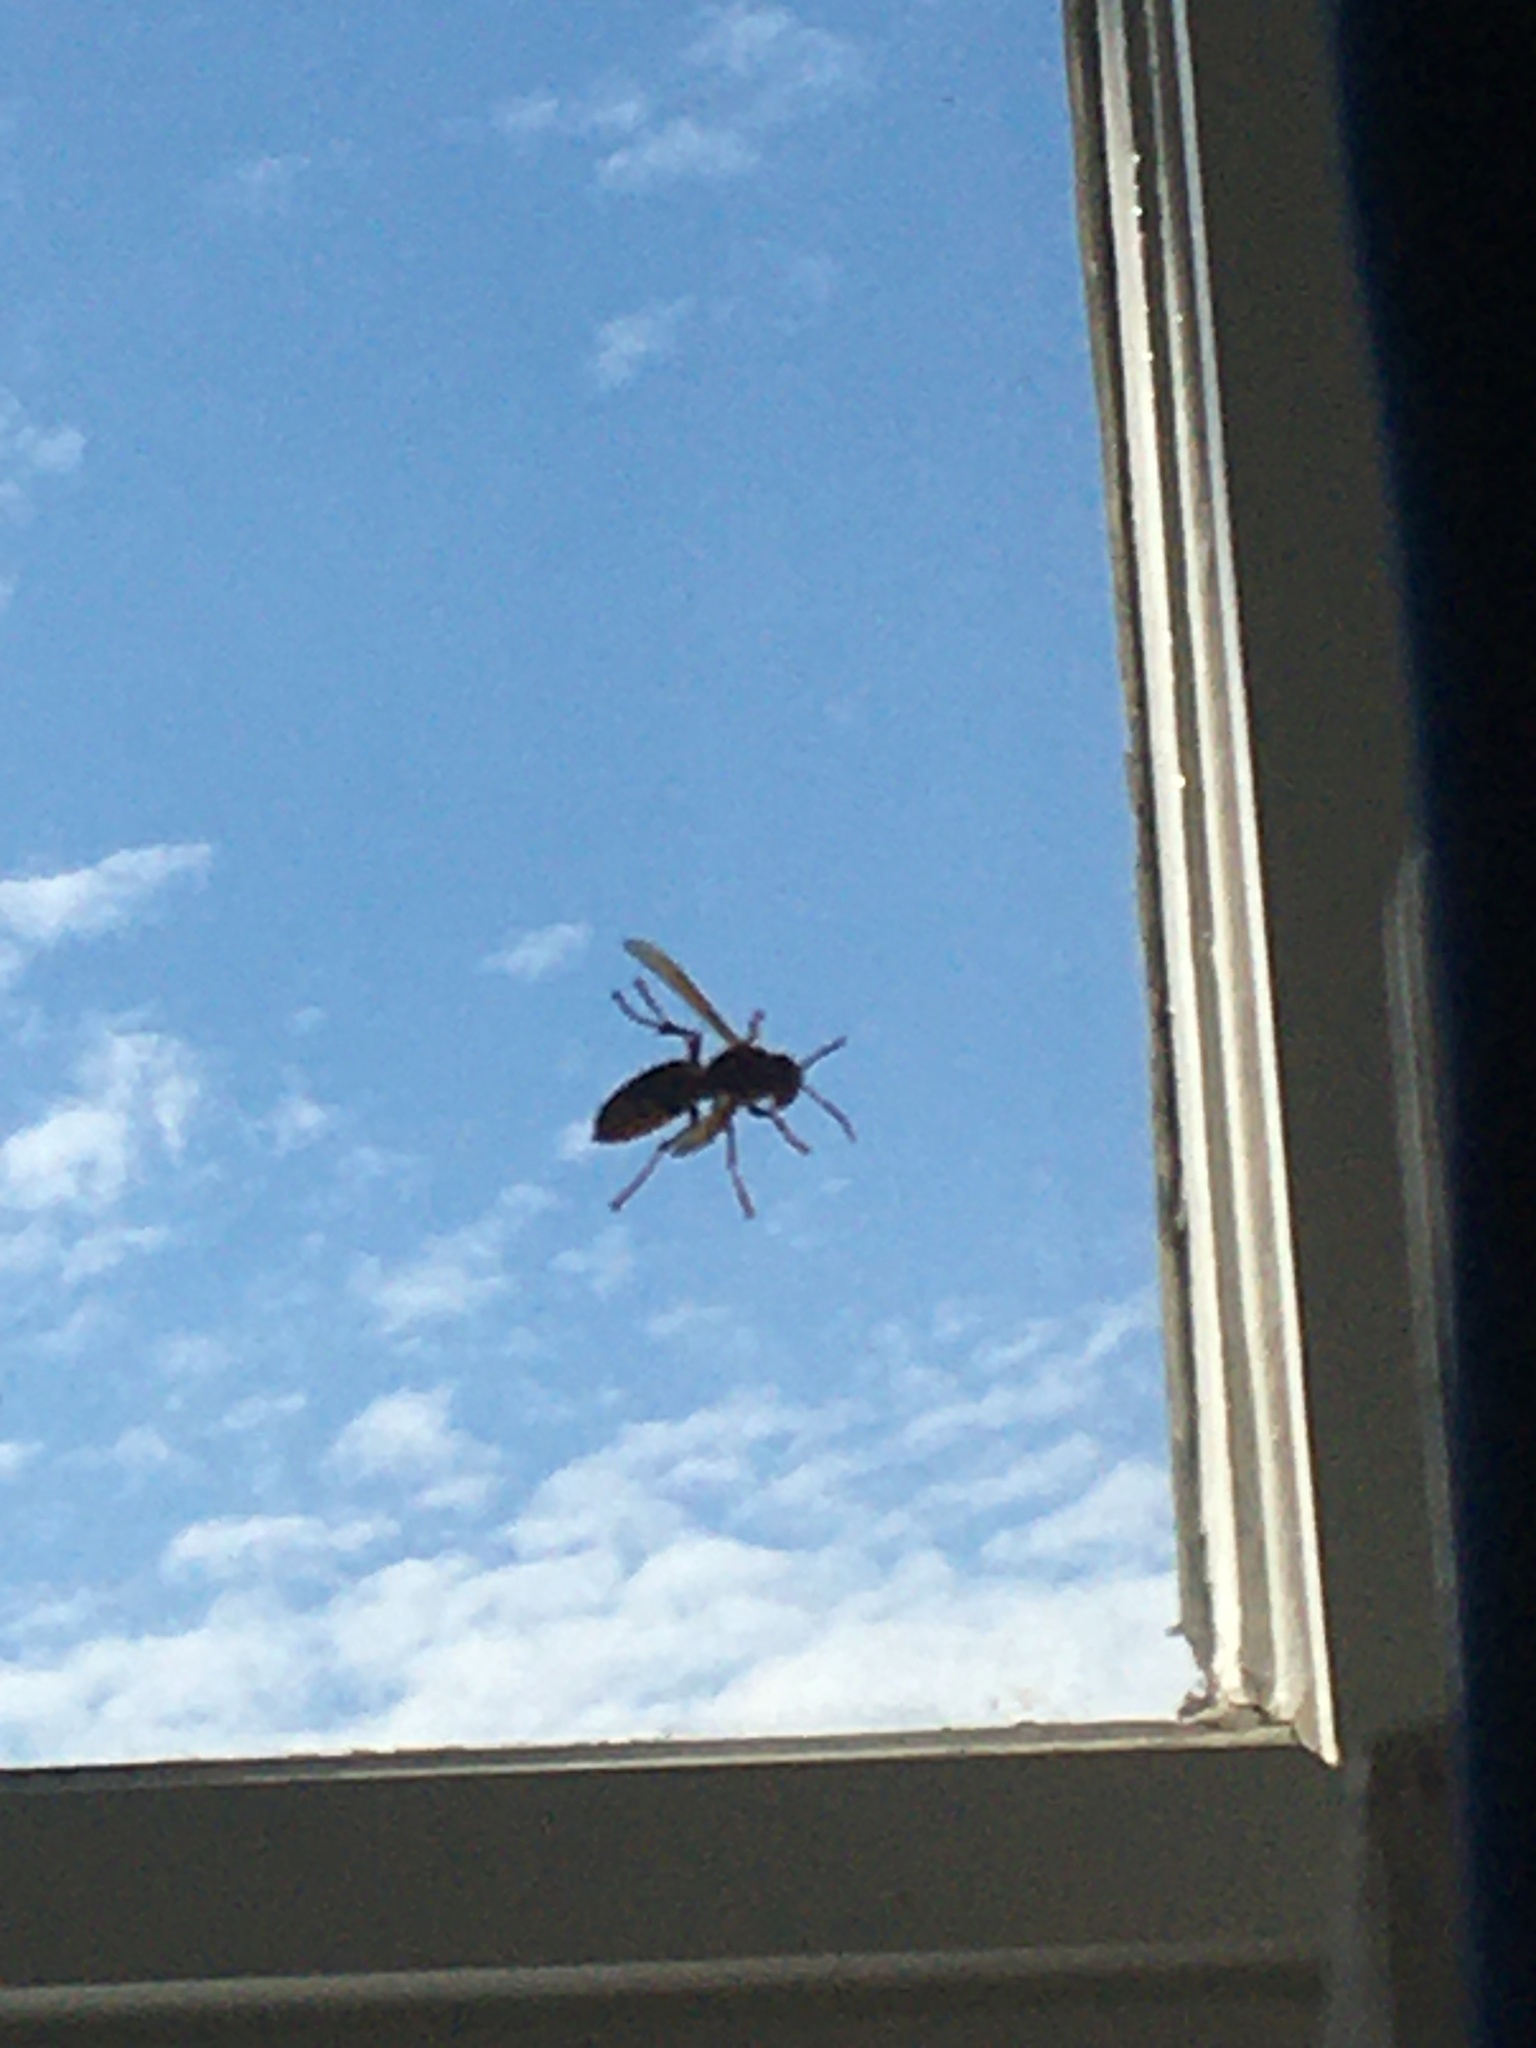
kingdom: Animalia
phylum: Arthropoda
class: Insecta
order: Hymenoptera
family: Vespidae
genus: Vespa
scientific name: Vespa crabro
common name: Hornet
